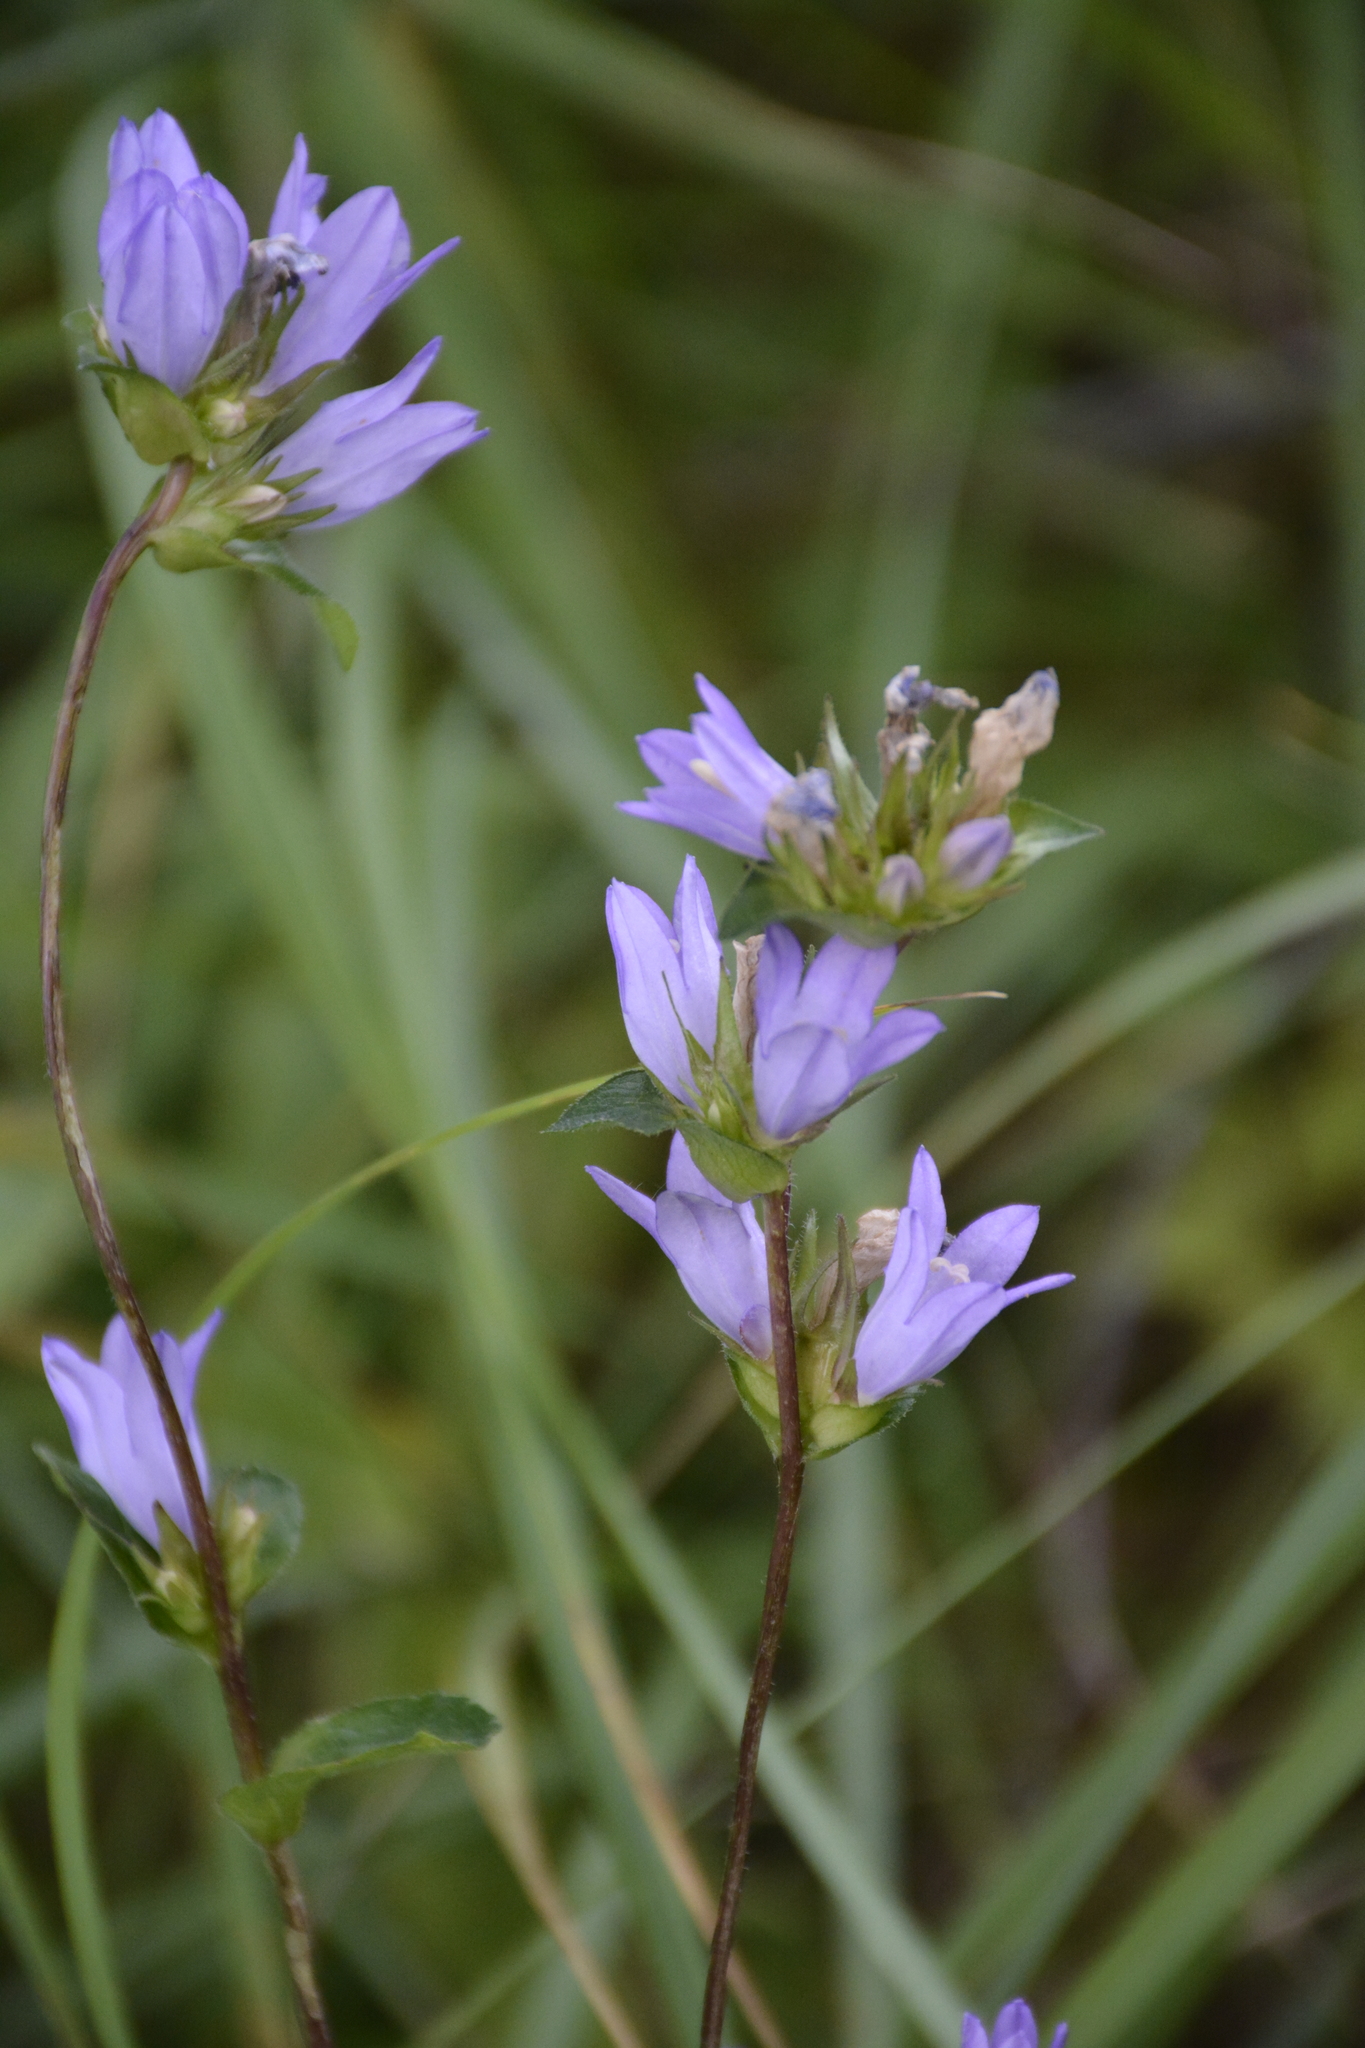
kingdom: Plantae
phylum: Tracheophyta
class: Magnoliopsida
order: Asterales
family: Campanulaceae
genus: Campanula
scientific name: Campanula glomerata
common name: Clustered bellflower
